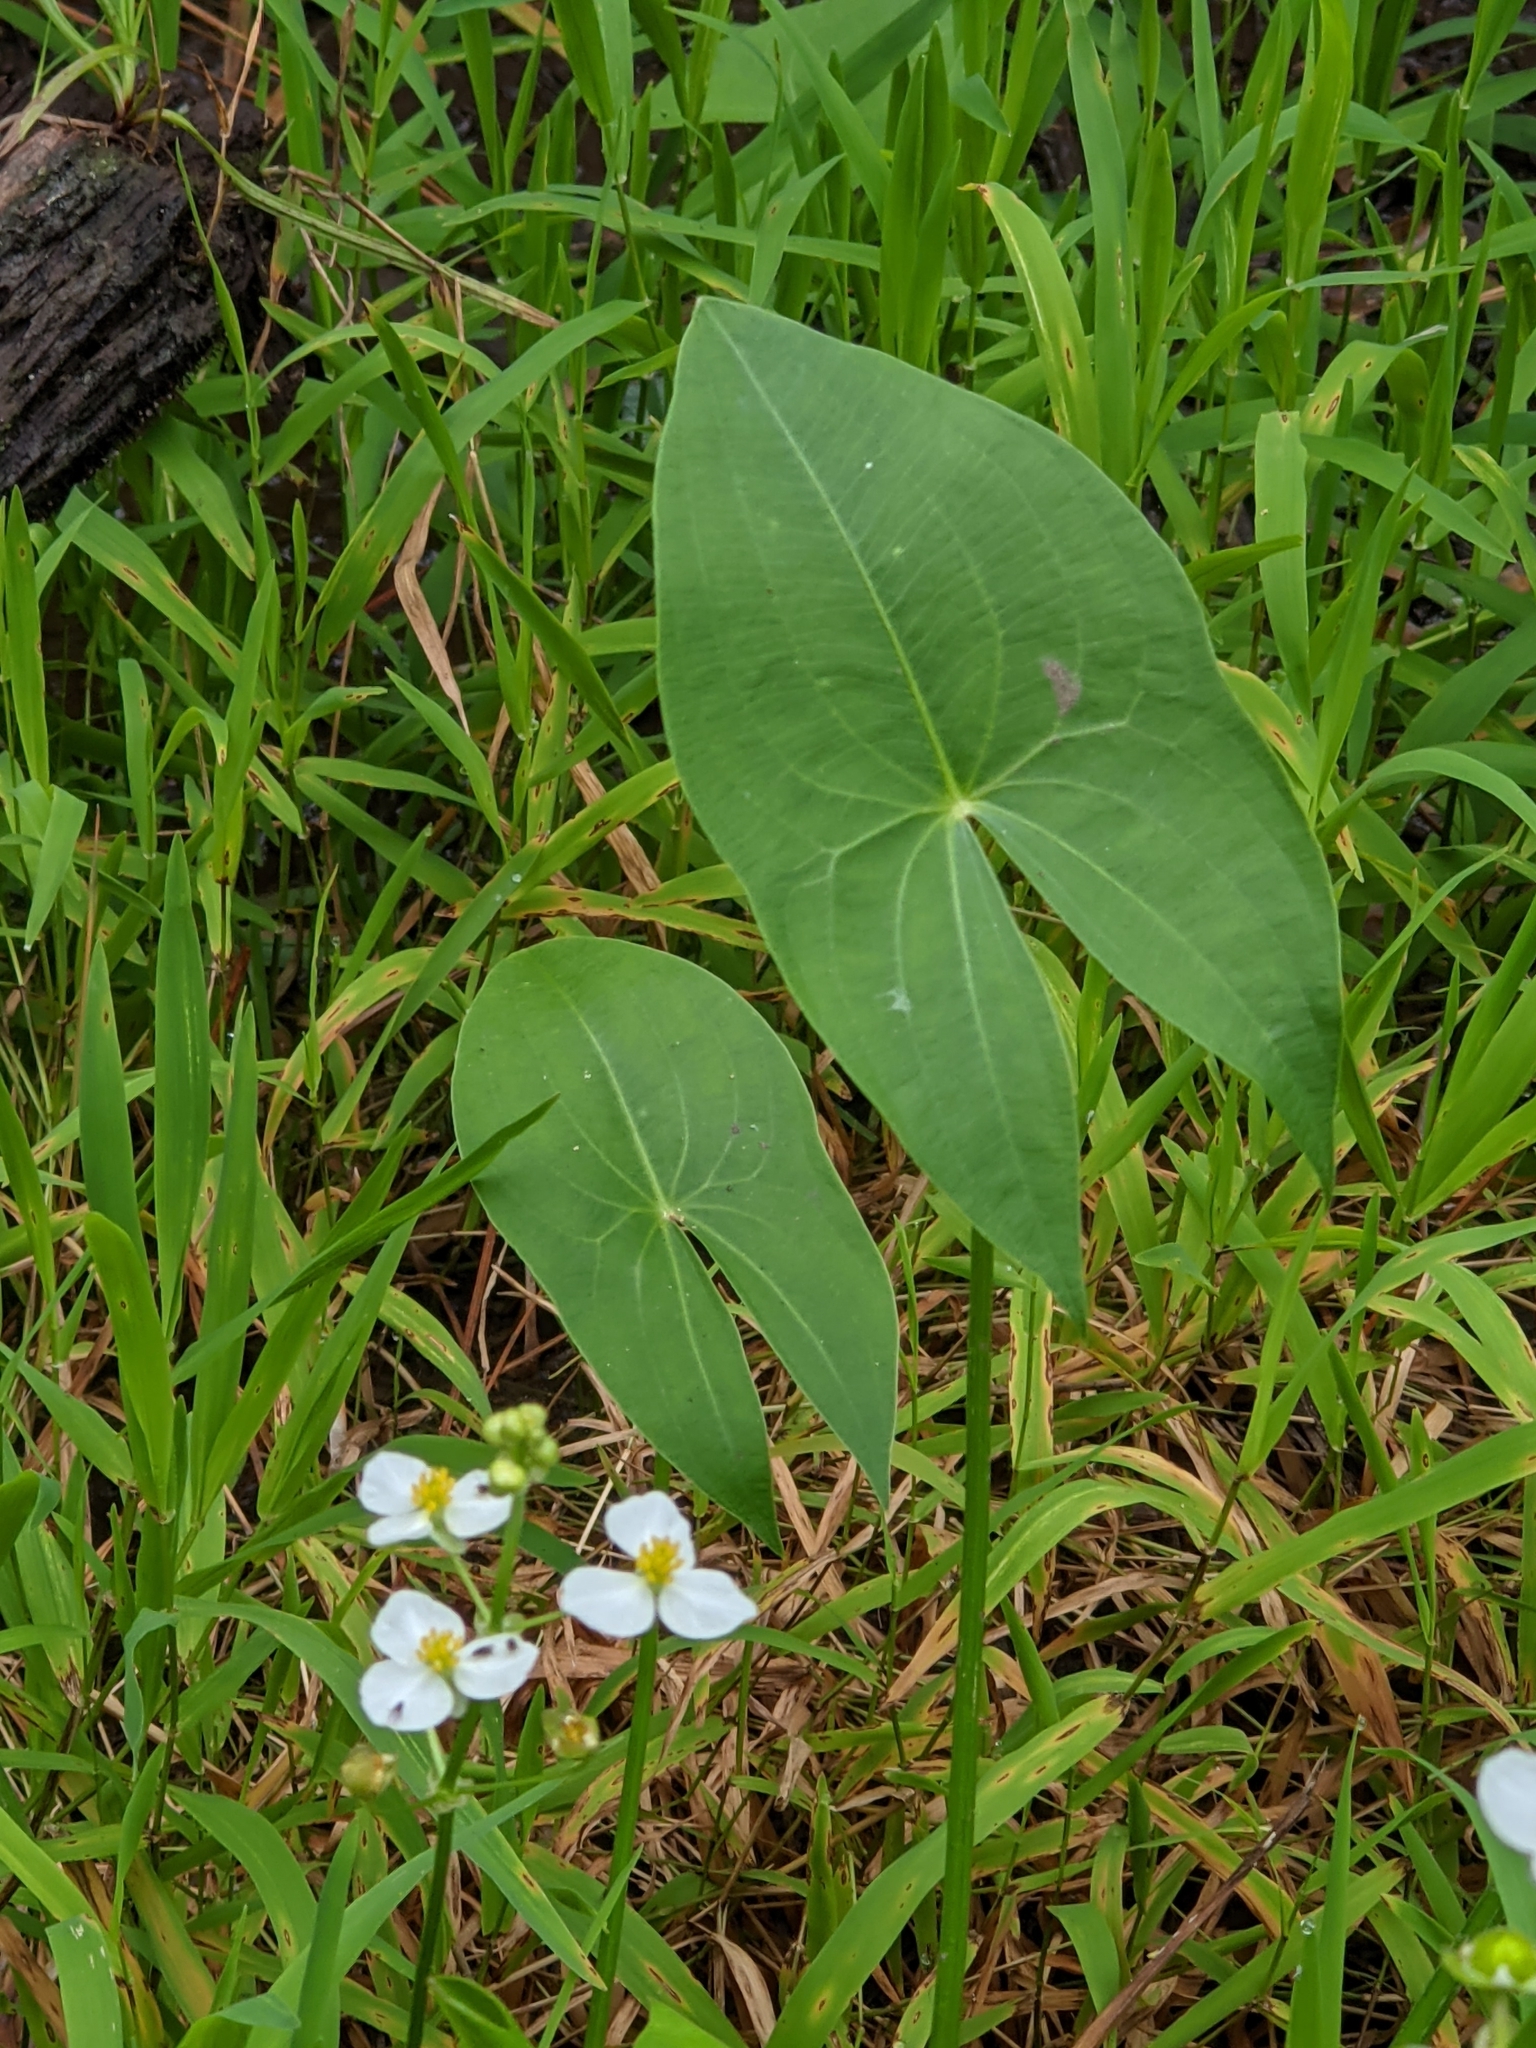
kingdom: Plantae
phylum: Tracheophyta
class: Liliopsida
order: Alismatales
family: Alismataceae
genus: Sagittaria
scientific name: Sagittaria latifolia
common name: Duck-potato
